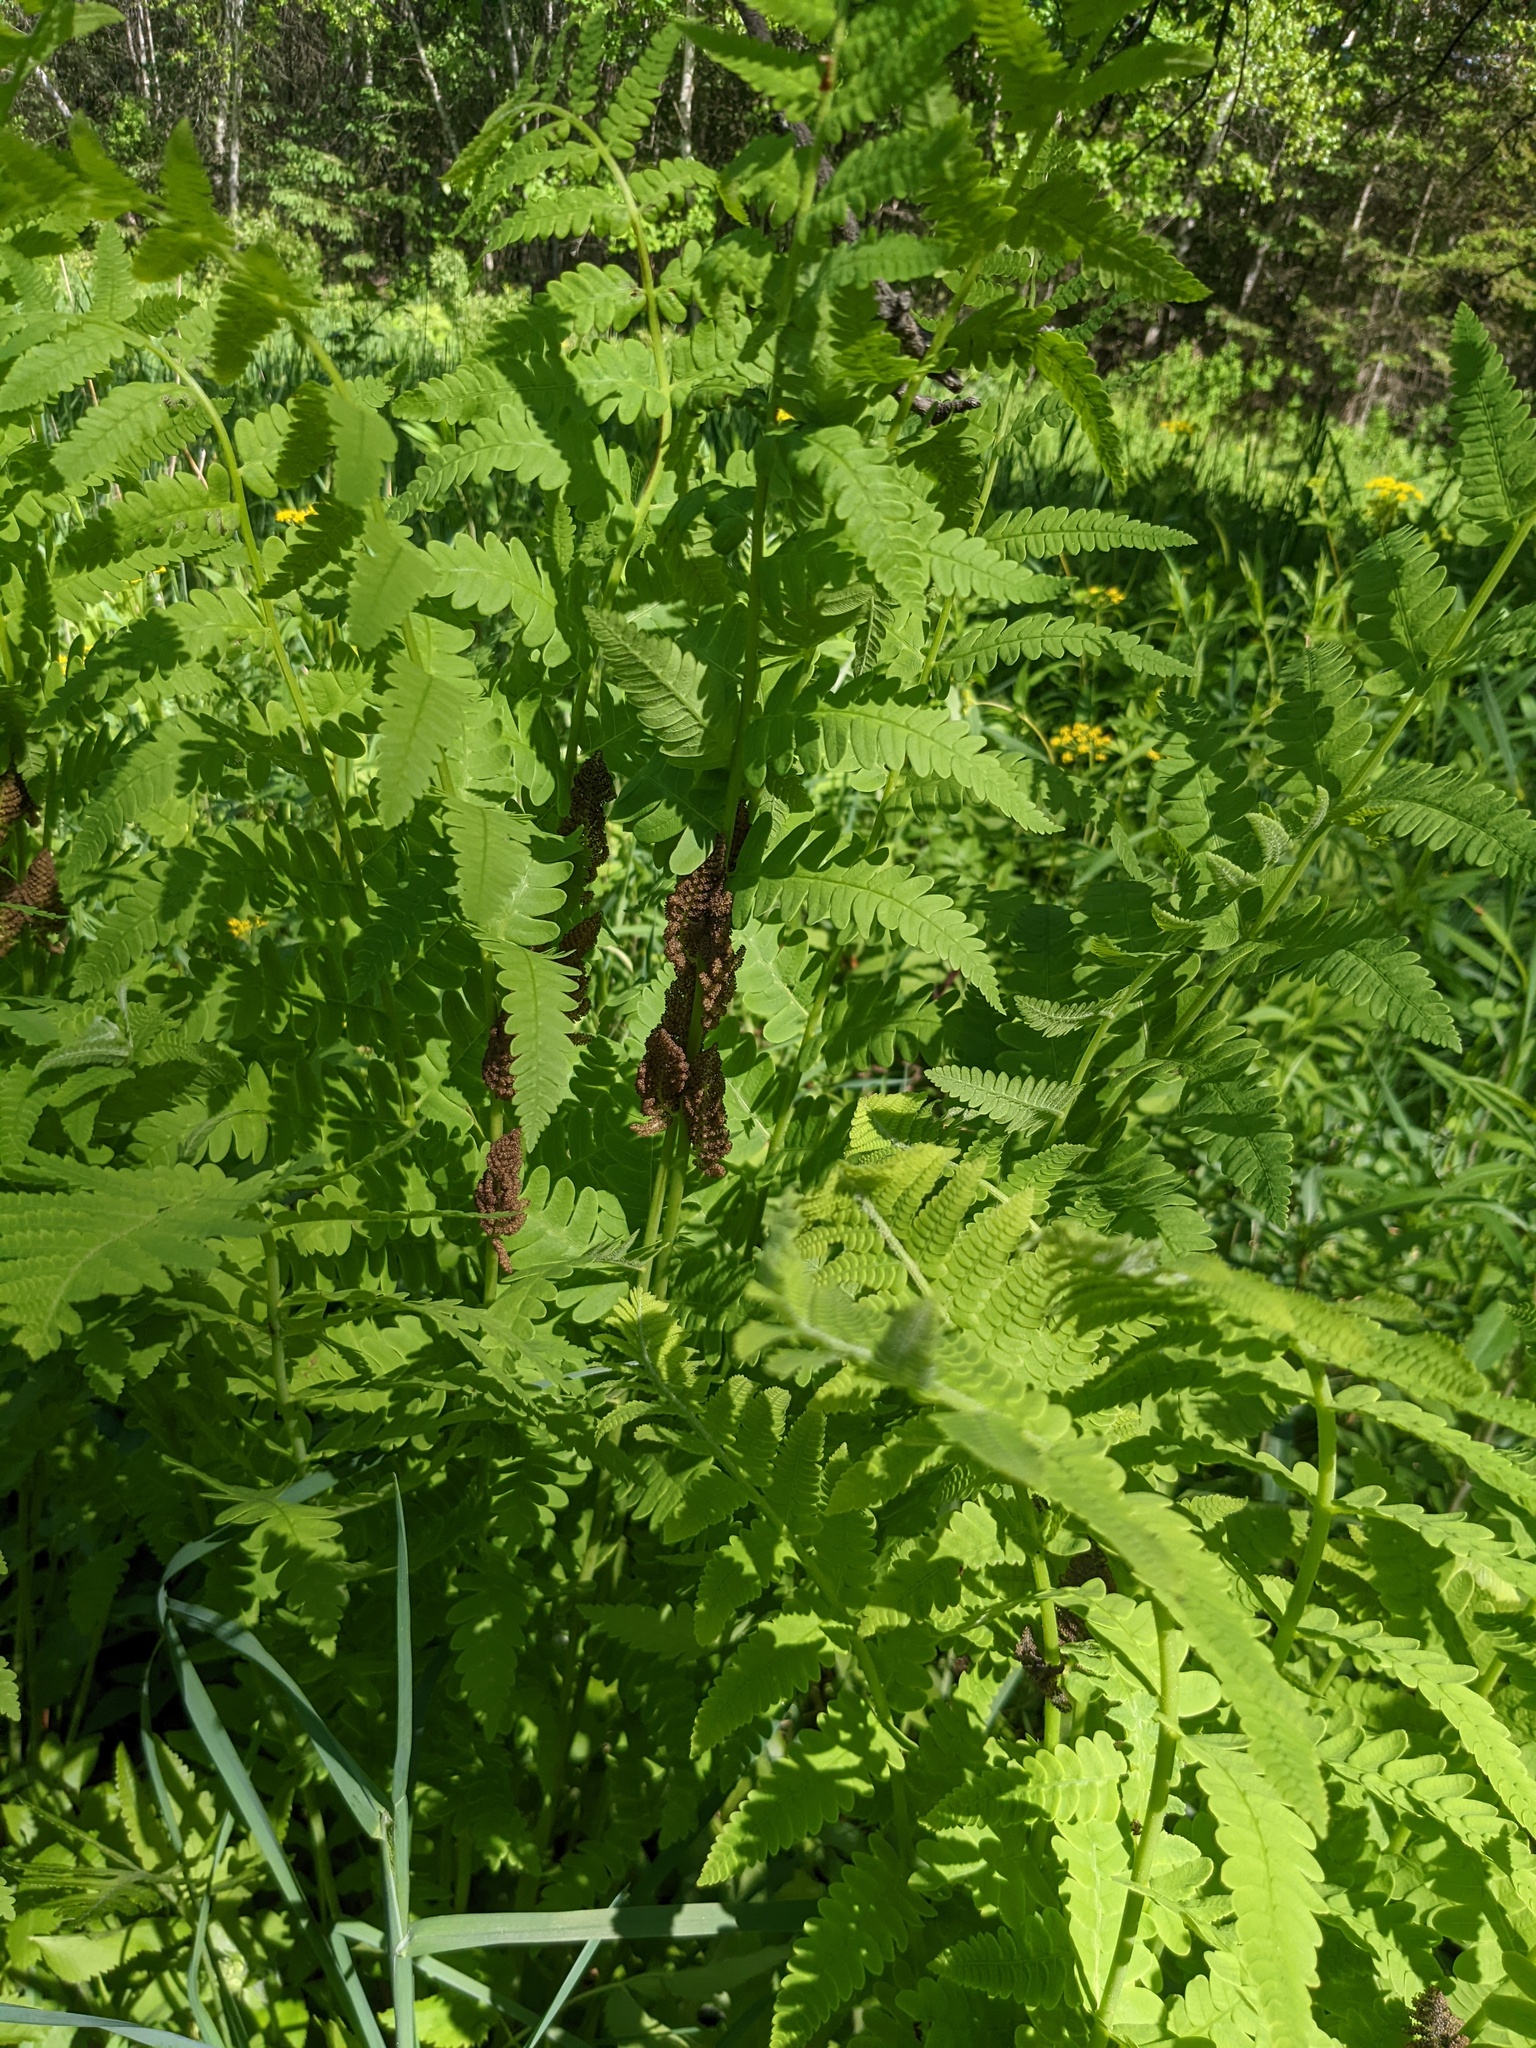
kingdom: Plantae
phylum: Tracheophyta
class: Polypodiopsida
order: Osmundales
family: Osmundaceae
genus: Claytosmunda
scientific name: Claytosmunda claytoniana
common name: Clayton's fern
